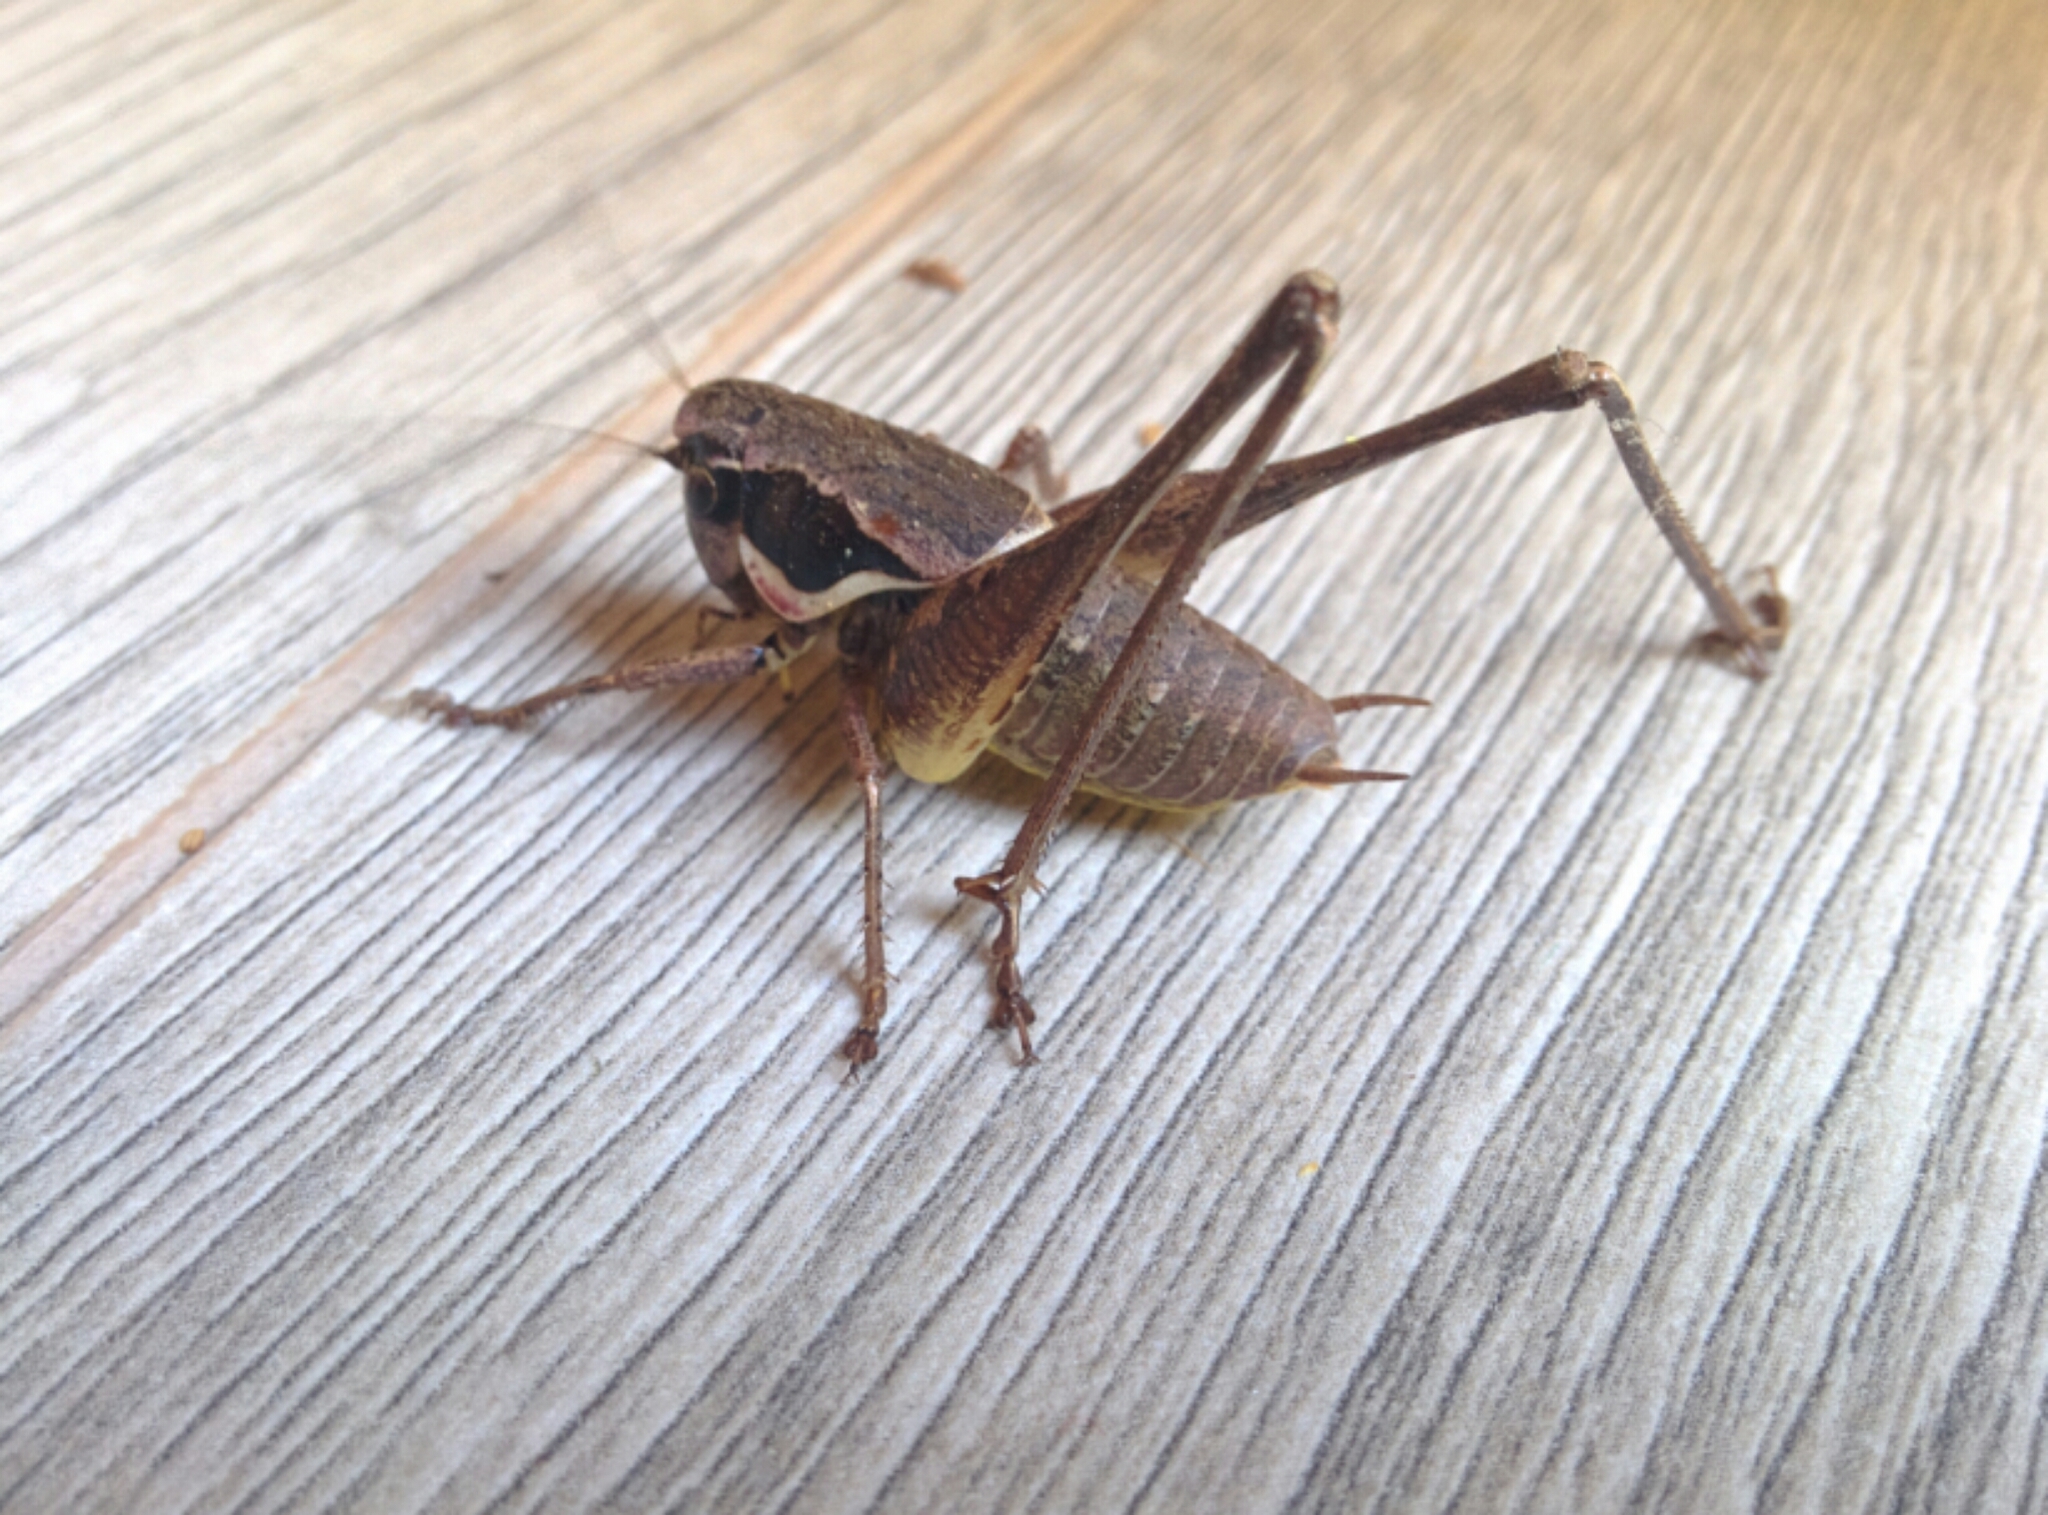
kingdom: Animalia
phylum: Arthropoda
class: Insecta
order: Orthoptera
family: Tettigoniidae
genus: Pholidoptera
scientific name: Pholidoptera femorata
